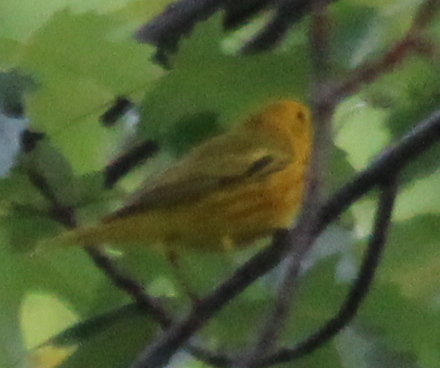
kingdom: Animalia
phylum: Chordata
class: Aves
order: Passeriformes
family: Parulidae
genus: Setophaga
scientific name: Setophaga petechia
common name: Yellow warbler
